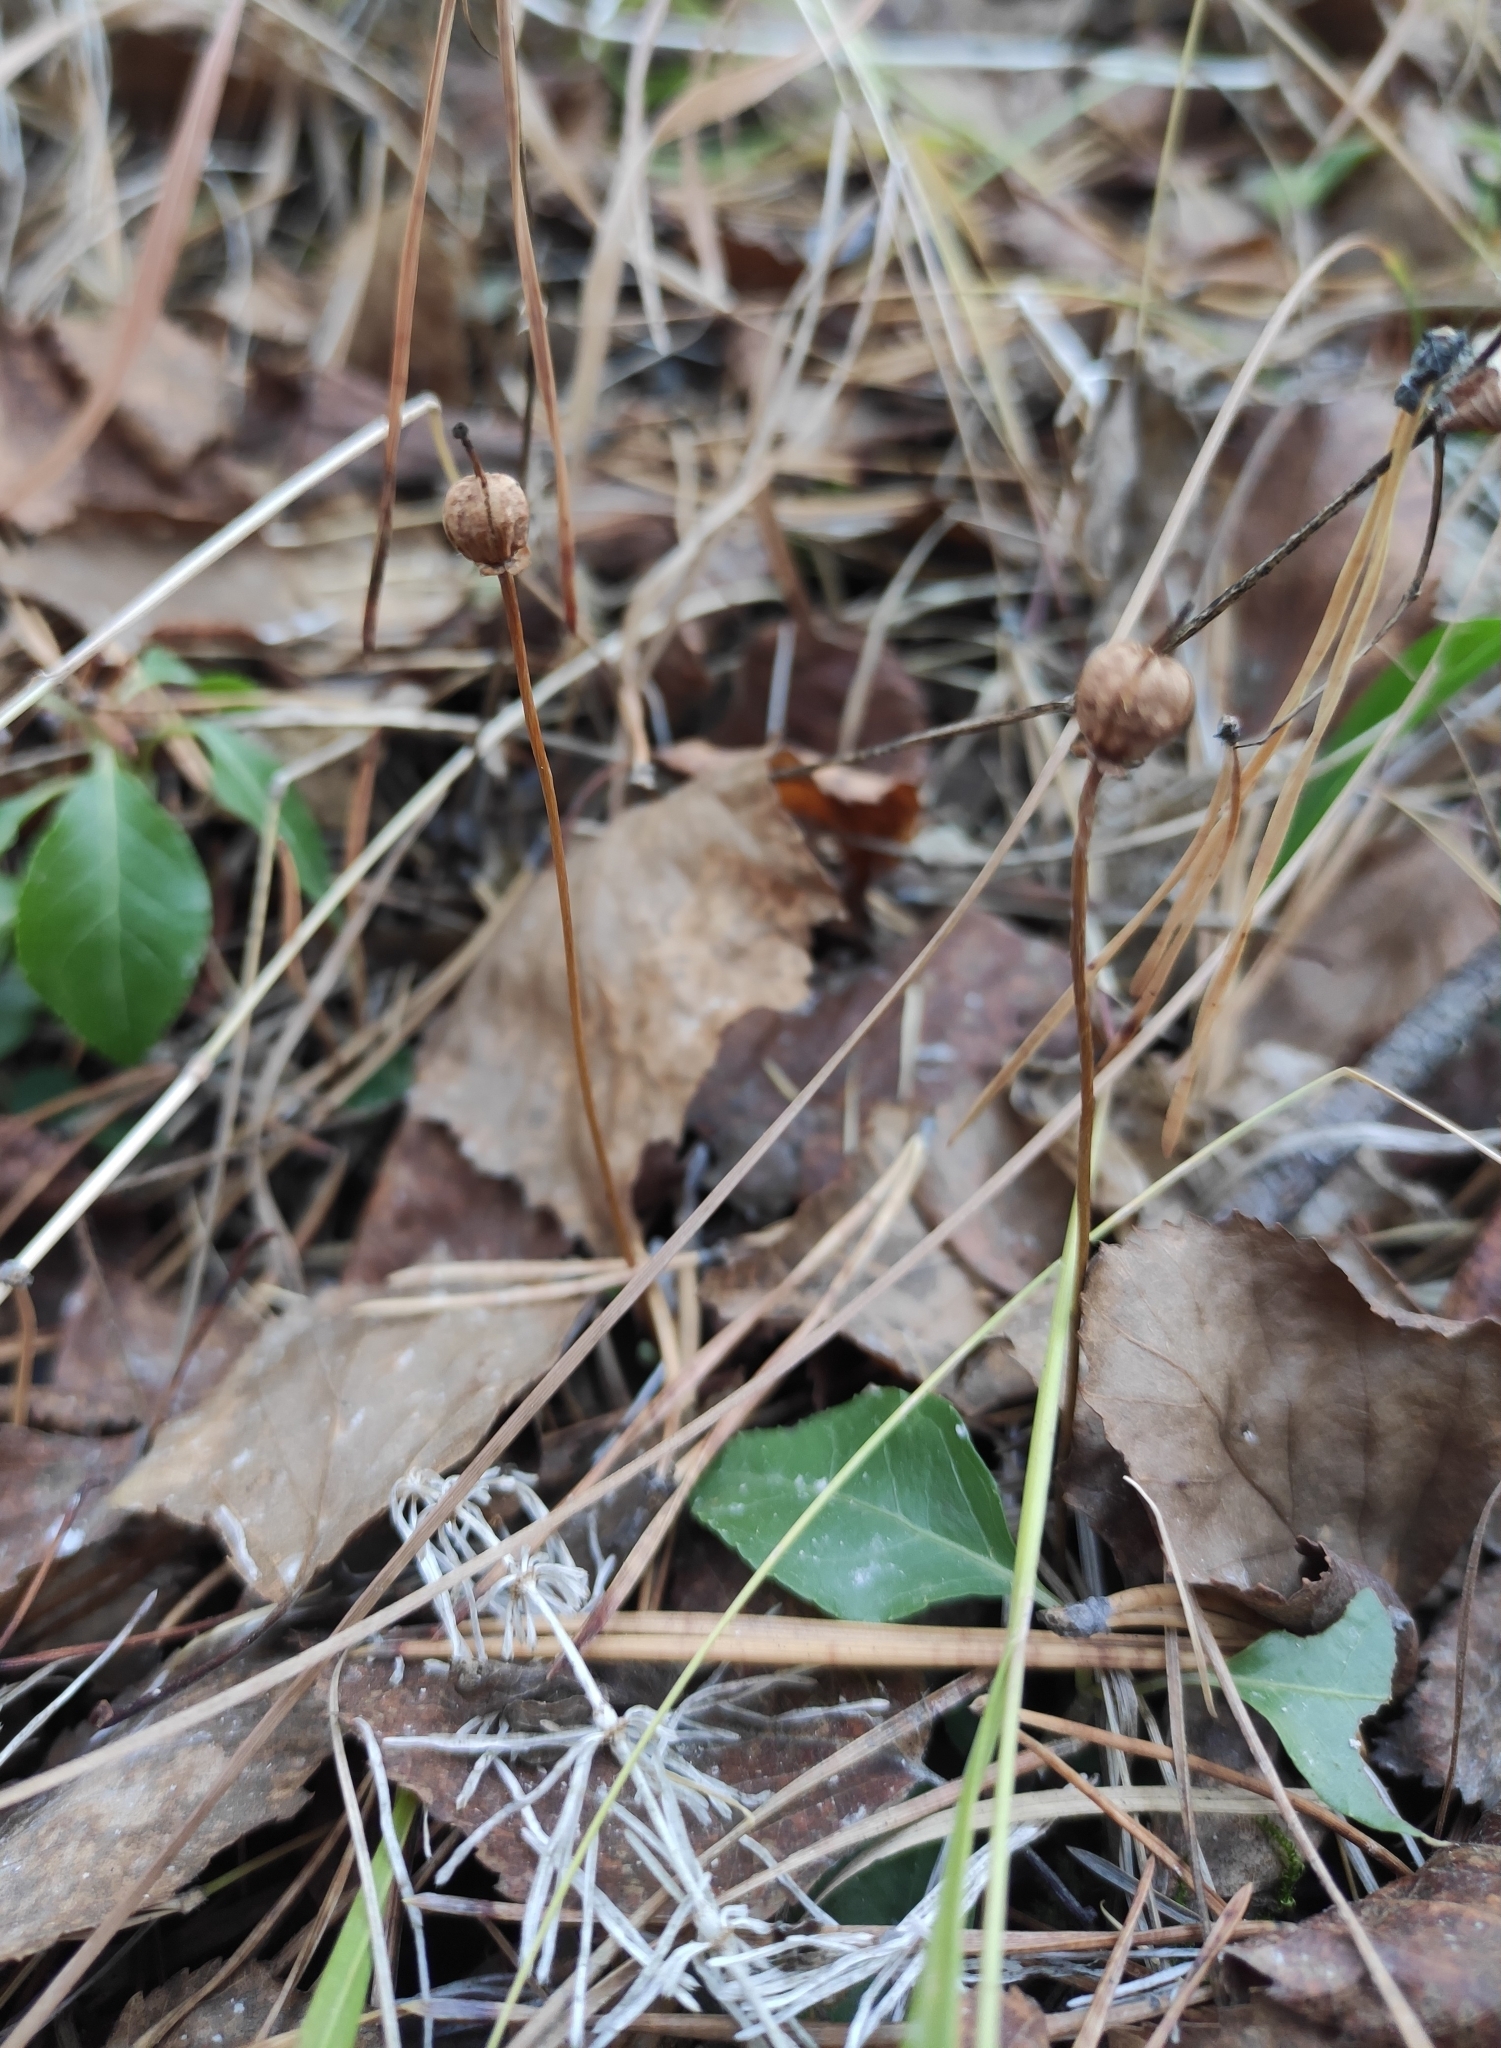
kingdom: Plantae
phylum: Tracheophyta
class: Magnoliopsida
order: Ericales
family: Ericaceae
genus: Moneses
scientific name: Moneses uniflora
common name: One-flowered wintergreen
